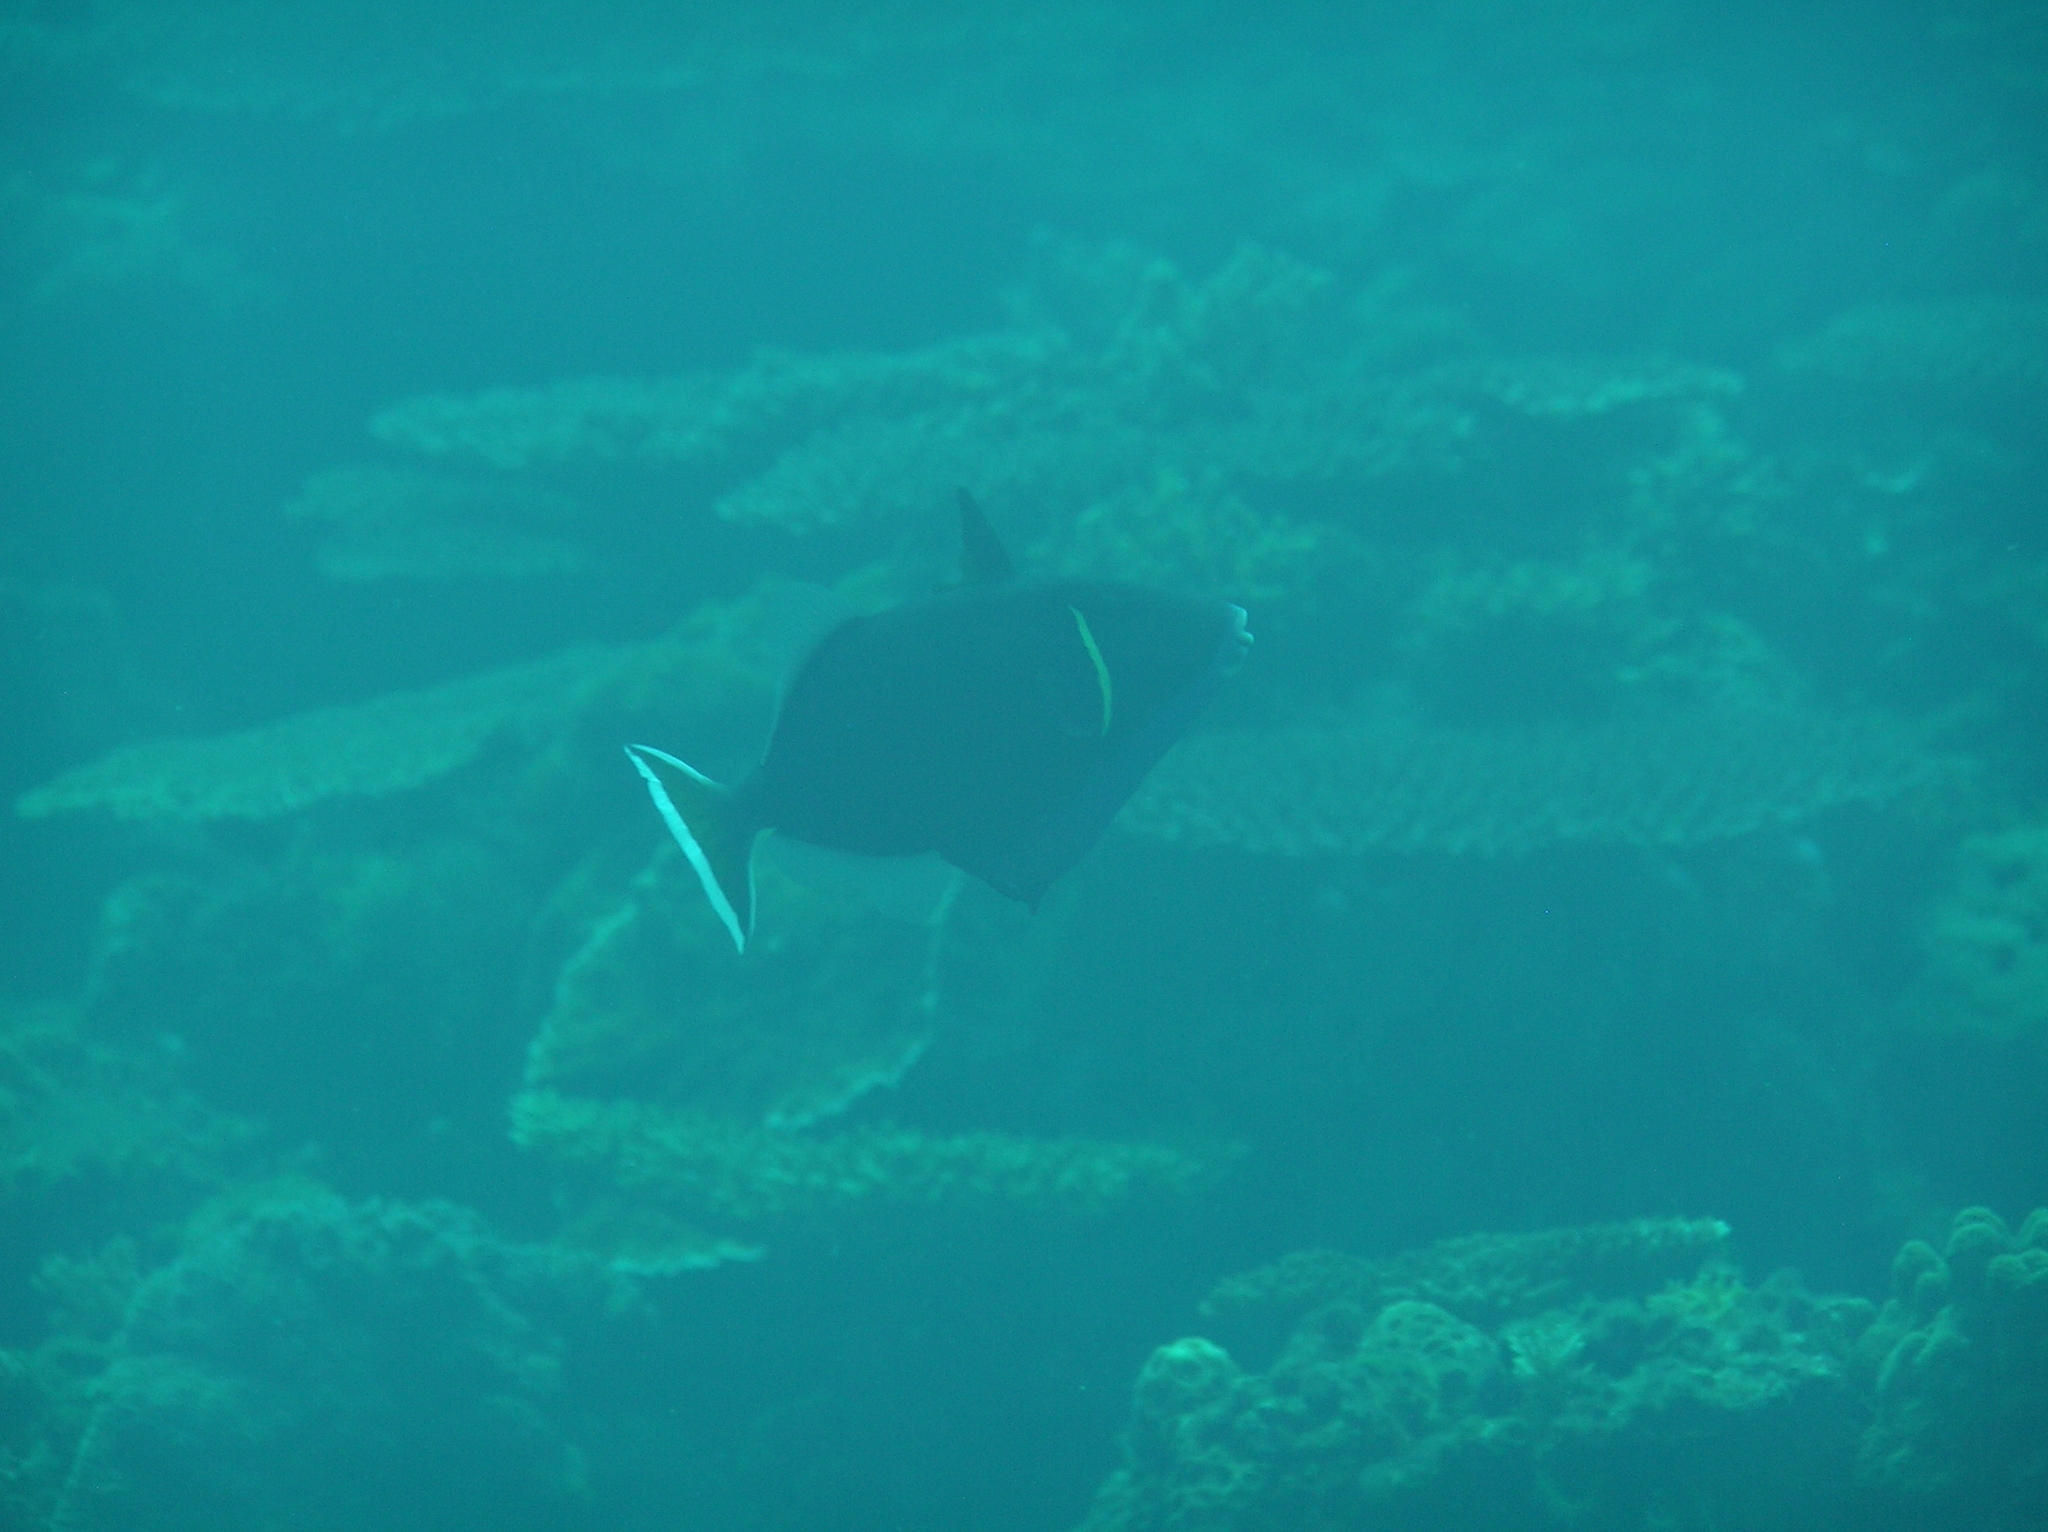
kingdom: Animalia
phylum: Chordata
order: Tetraodontiformes
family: Balistidae
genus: Sufflamen
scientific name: Sufflamen chrysopterum
